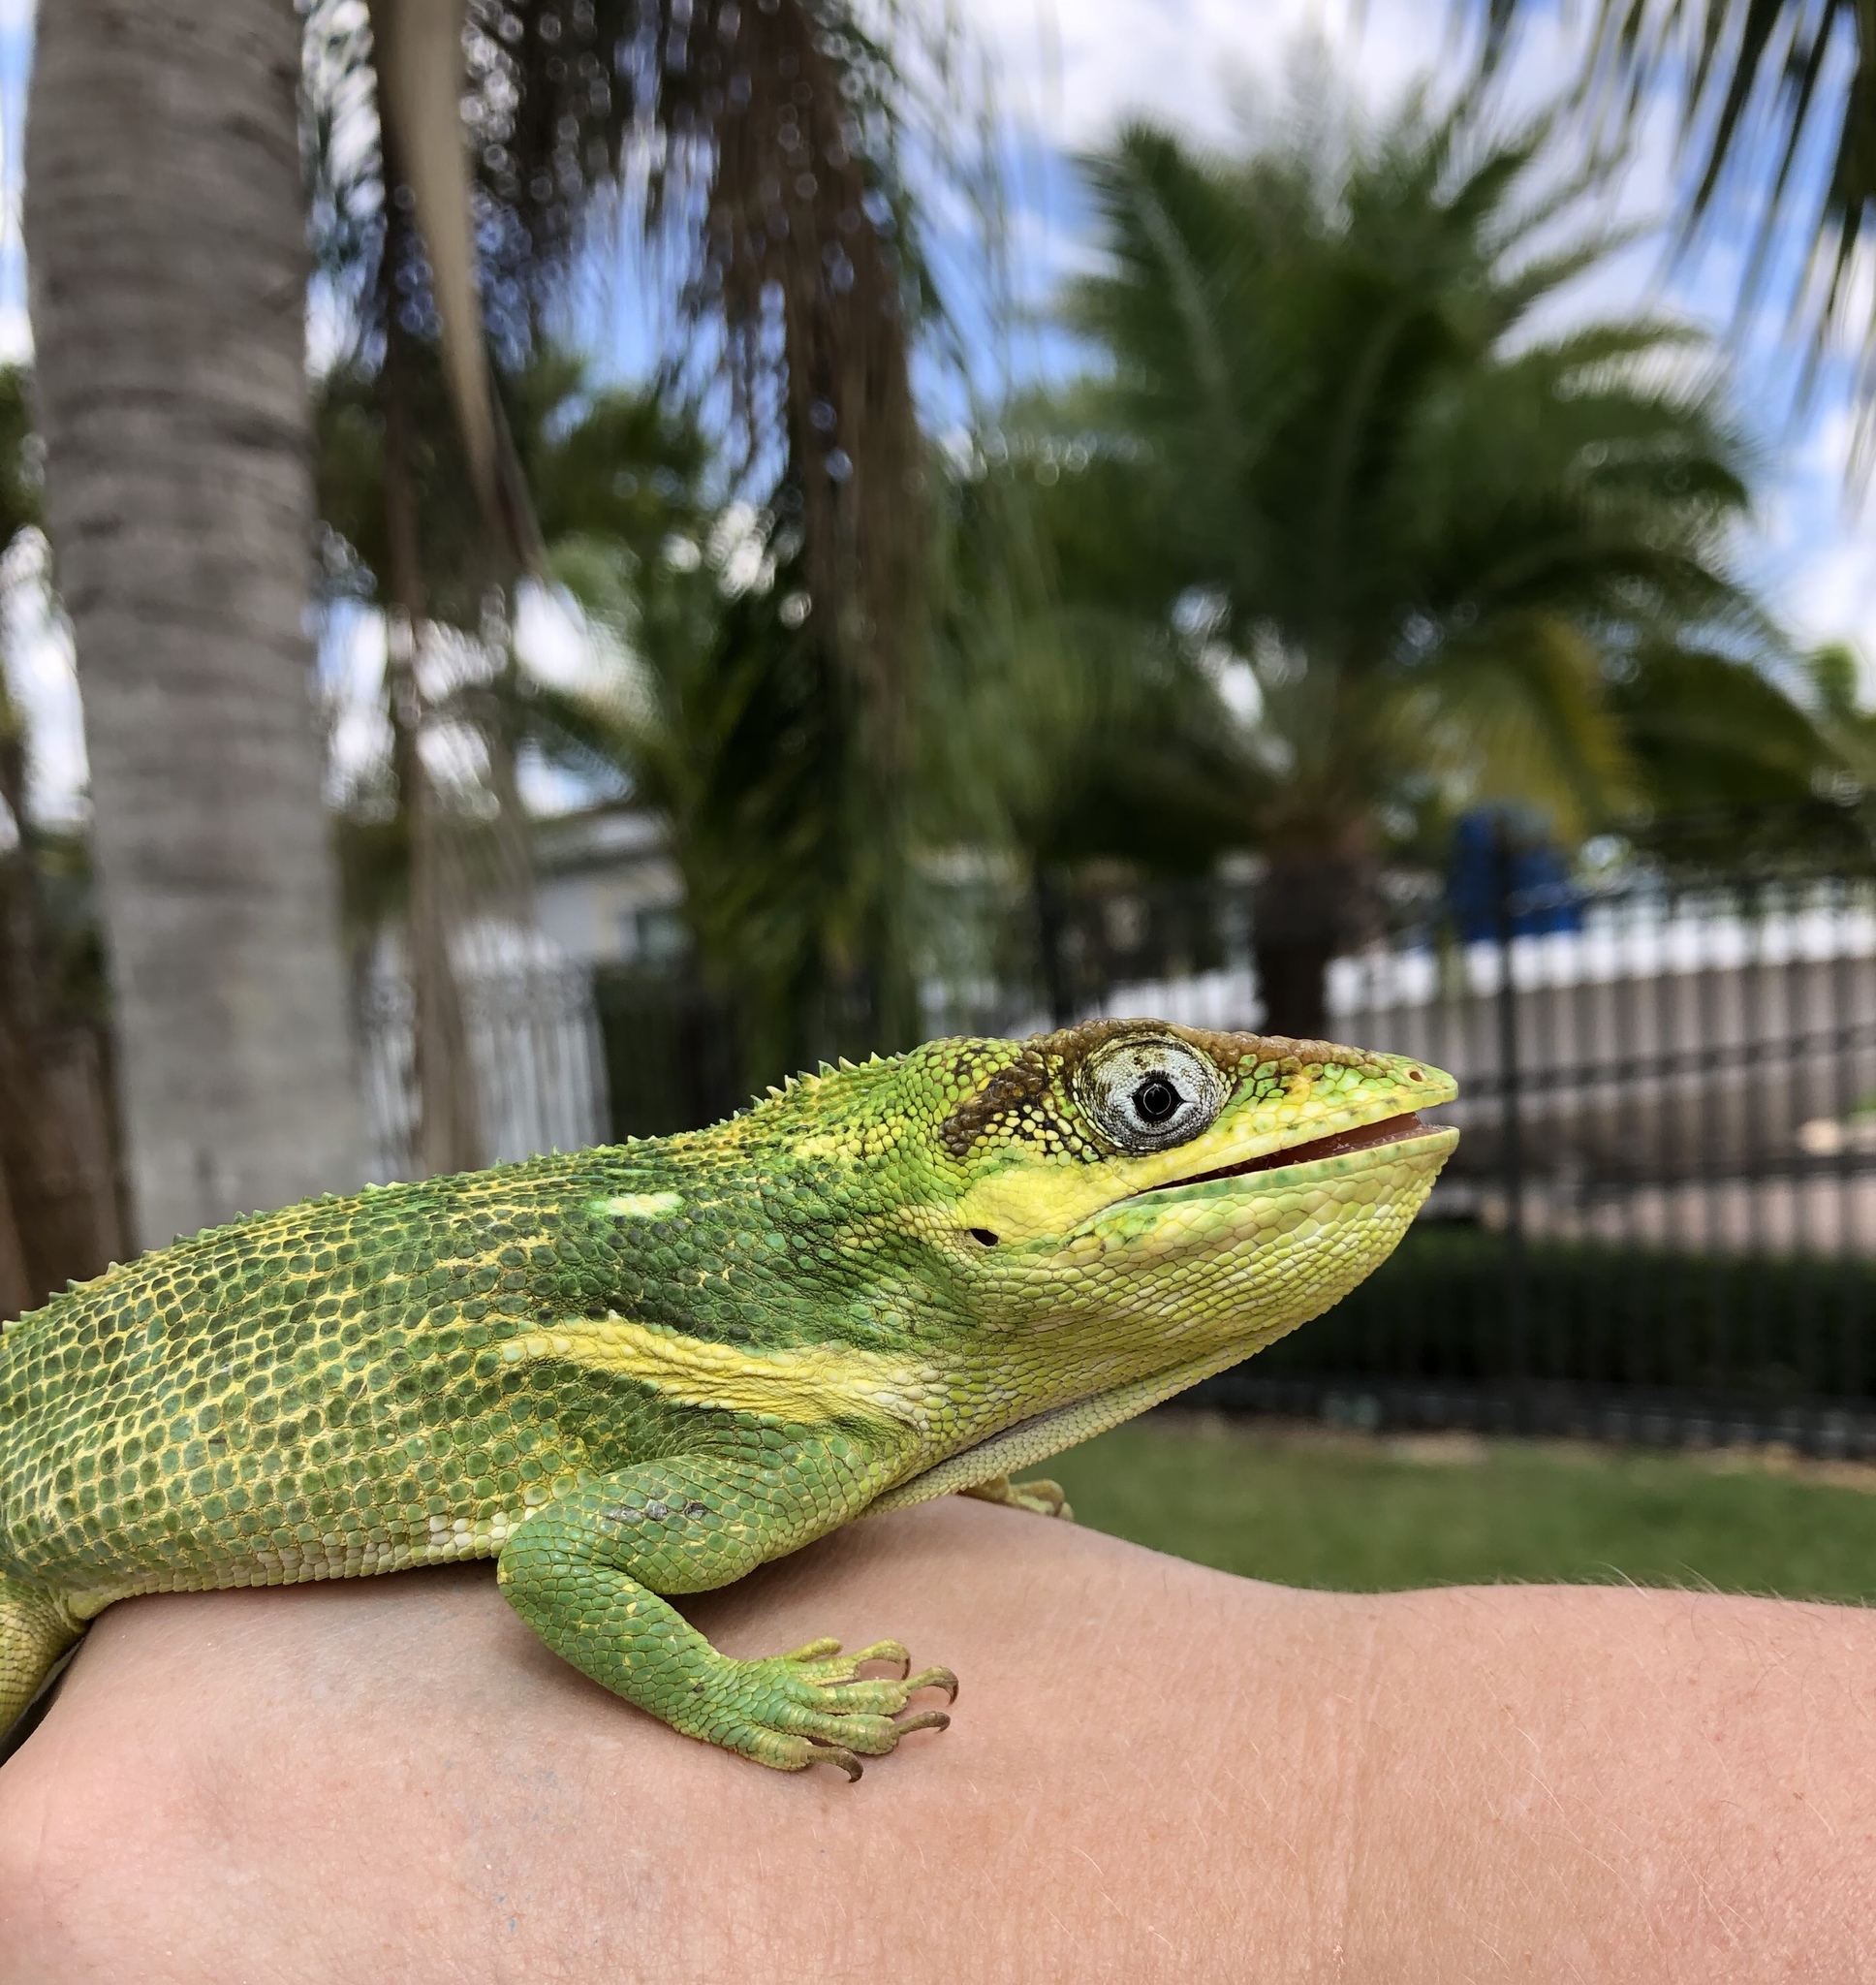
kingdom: Animalia
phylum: Chordata
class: Squamata
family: Dactyloidae
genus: Anolis
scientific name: Anolis equestris
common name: Knight anole
